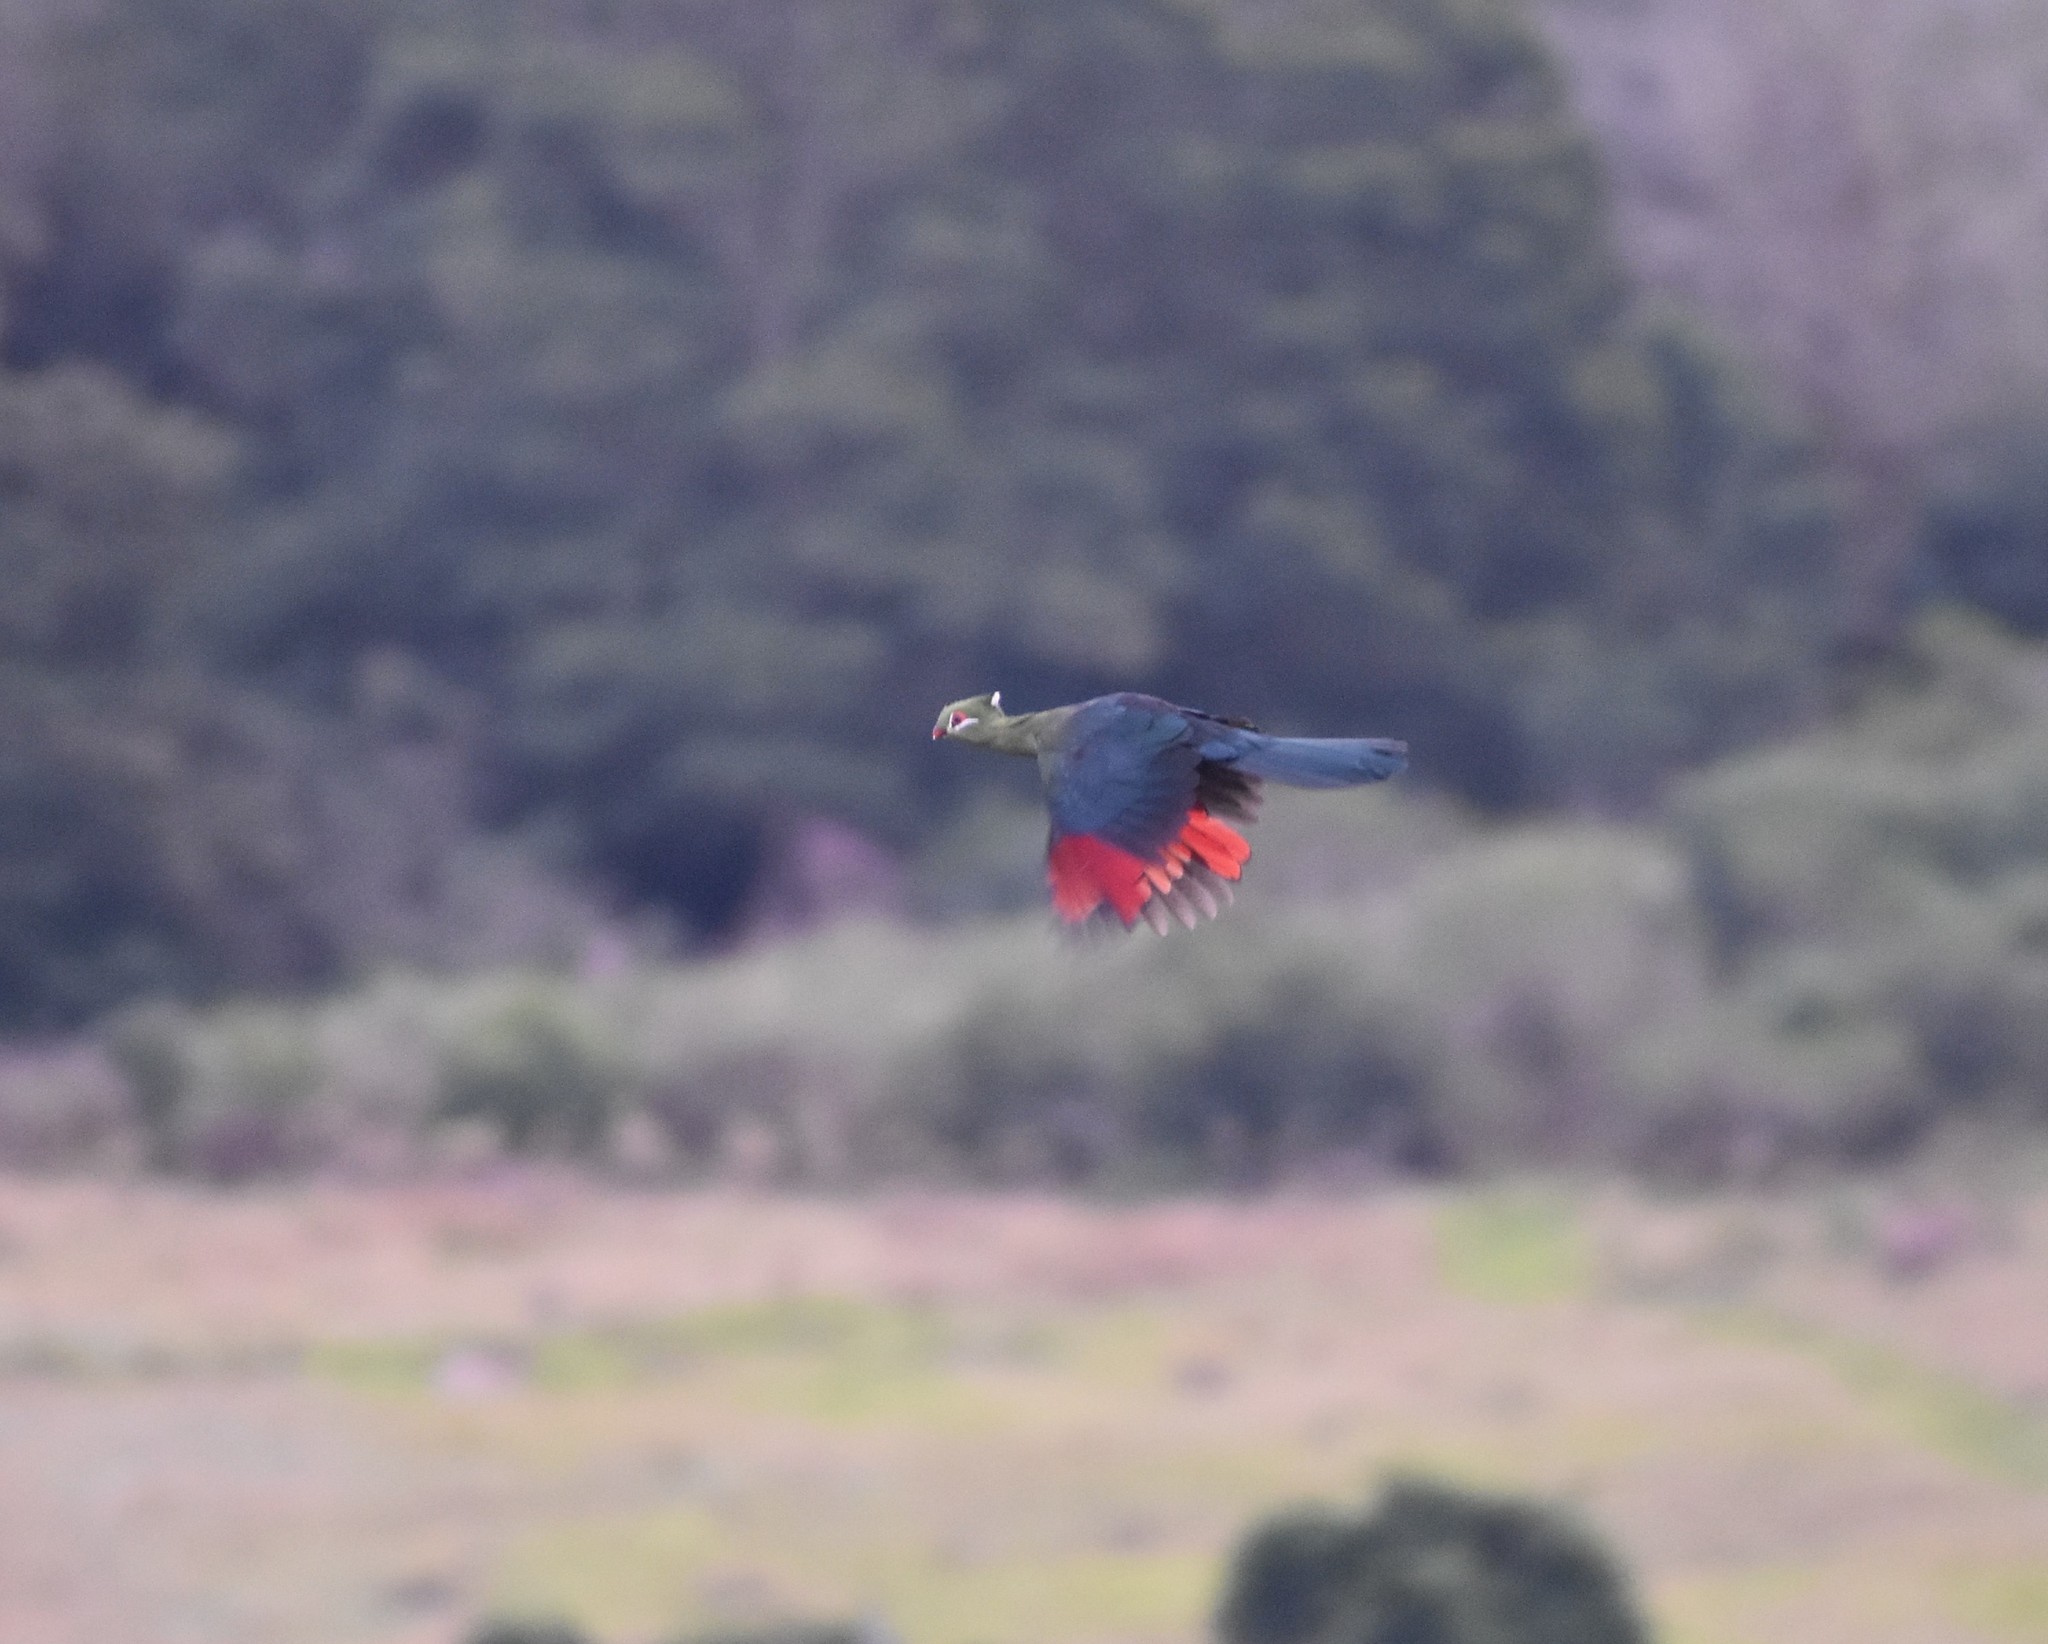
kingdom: Animalia
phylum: Chordata
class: Aves
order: Musophagiformes
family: Musophagidae
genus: Tauraco
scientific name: Tauraco corythaix
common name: Knysna turaco
